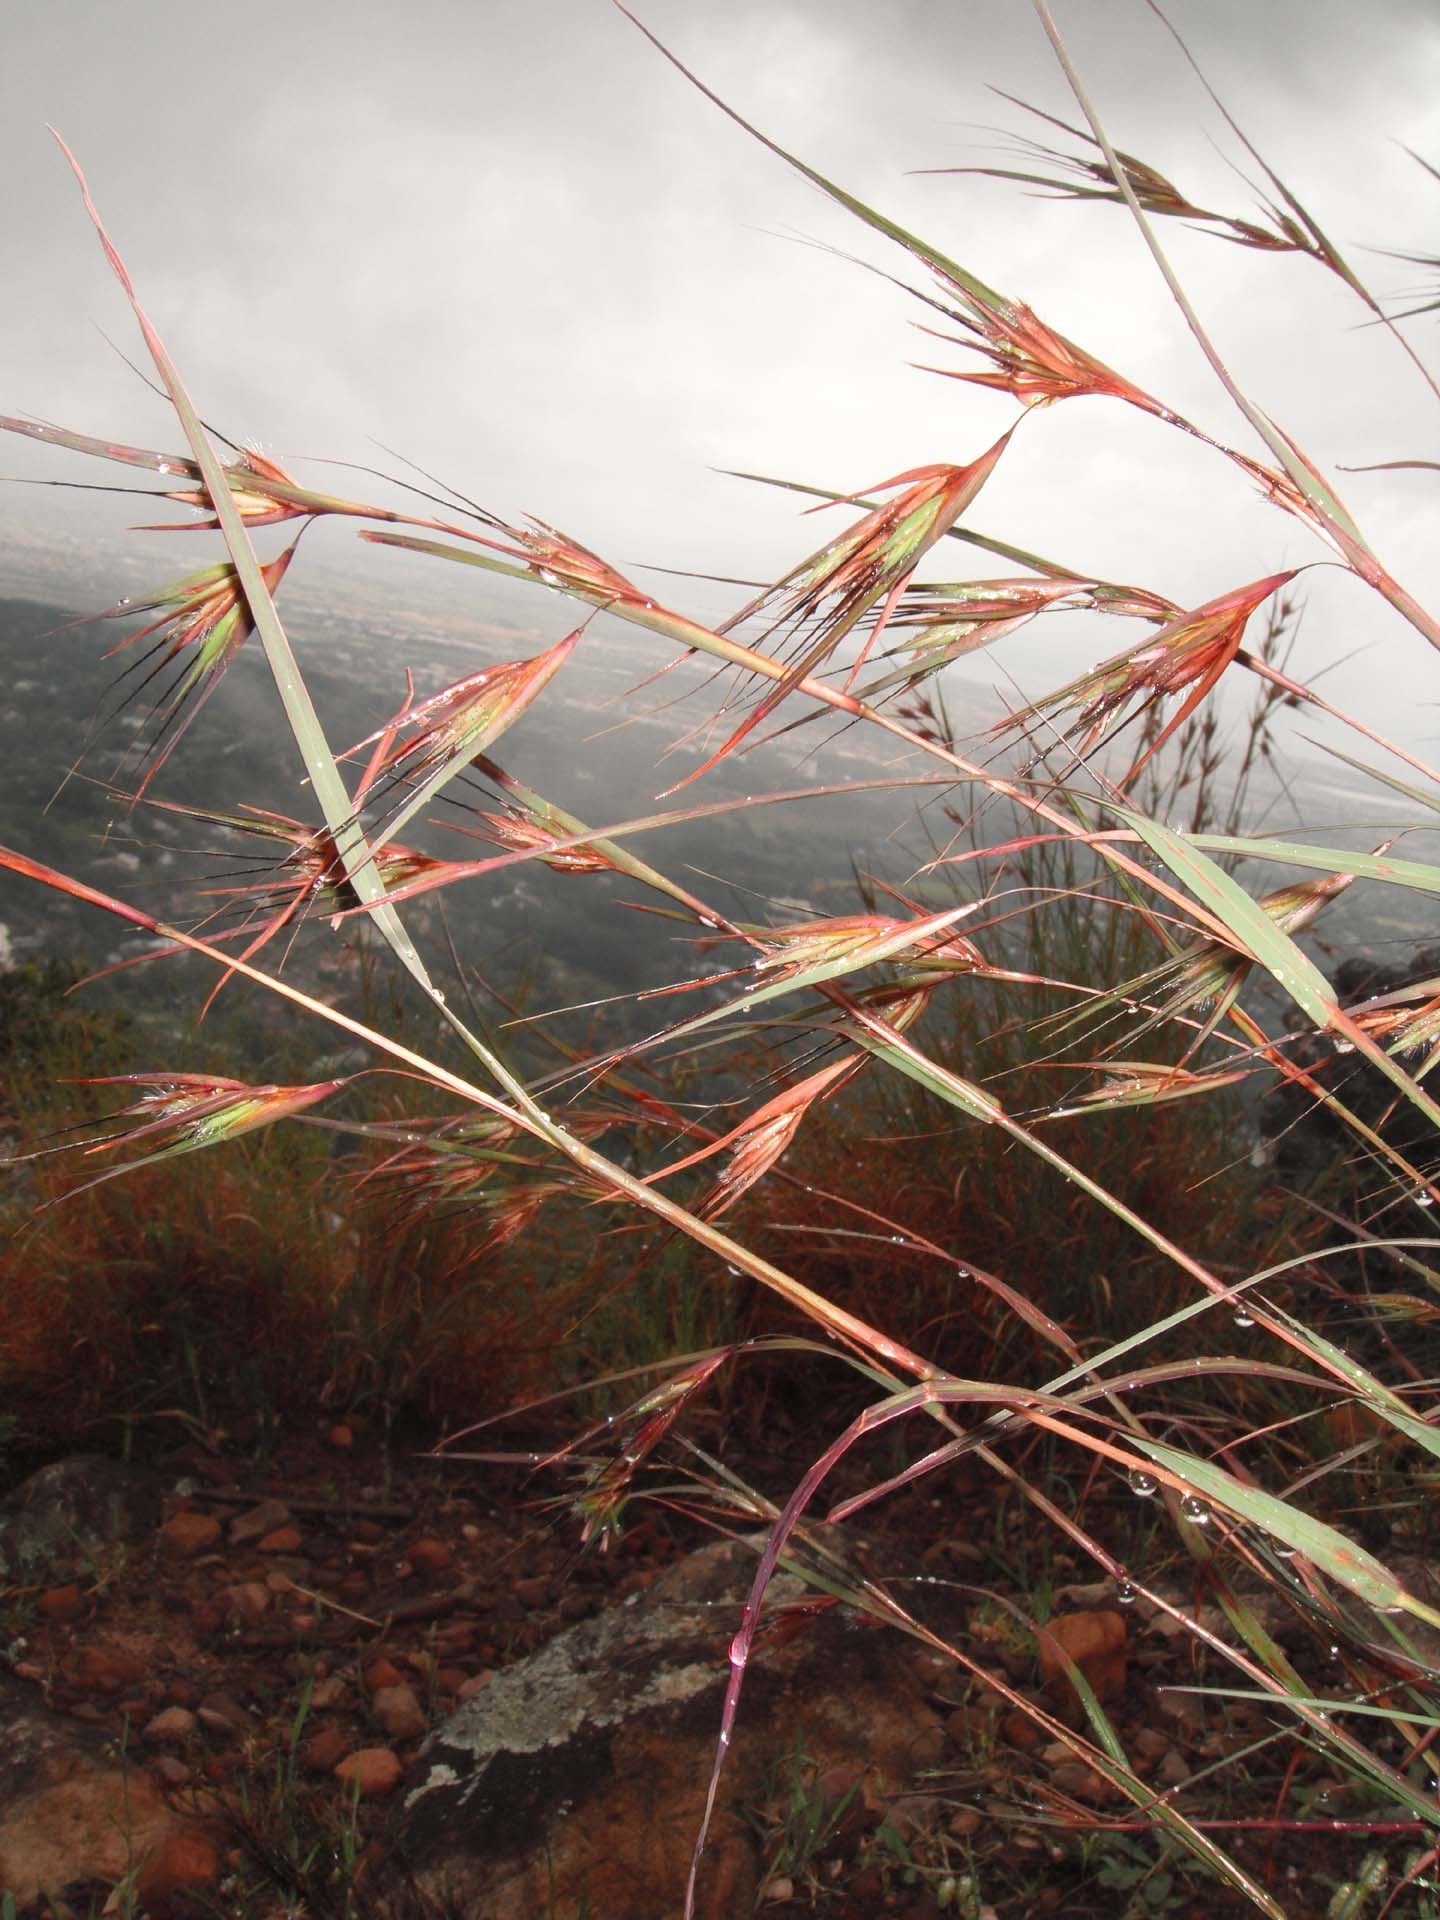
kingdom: Plantae
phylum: Tracheophyta
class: Liliopsida
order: Poales
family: Poaceae
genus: Themeda
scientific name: Themeda triandra
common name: Kangaroo grass
